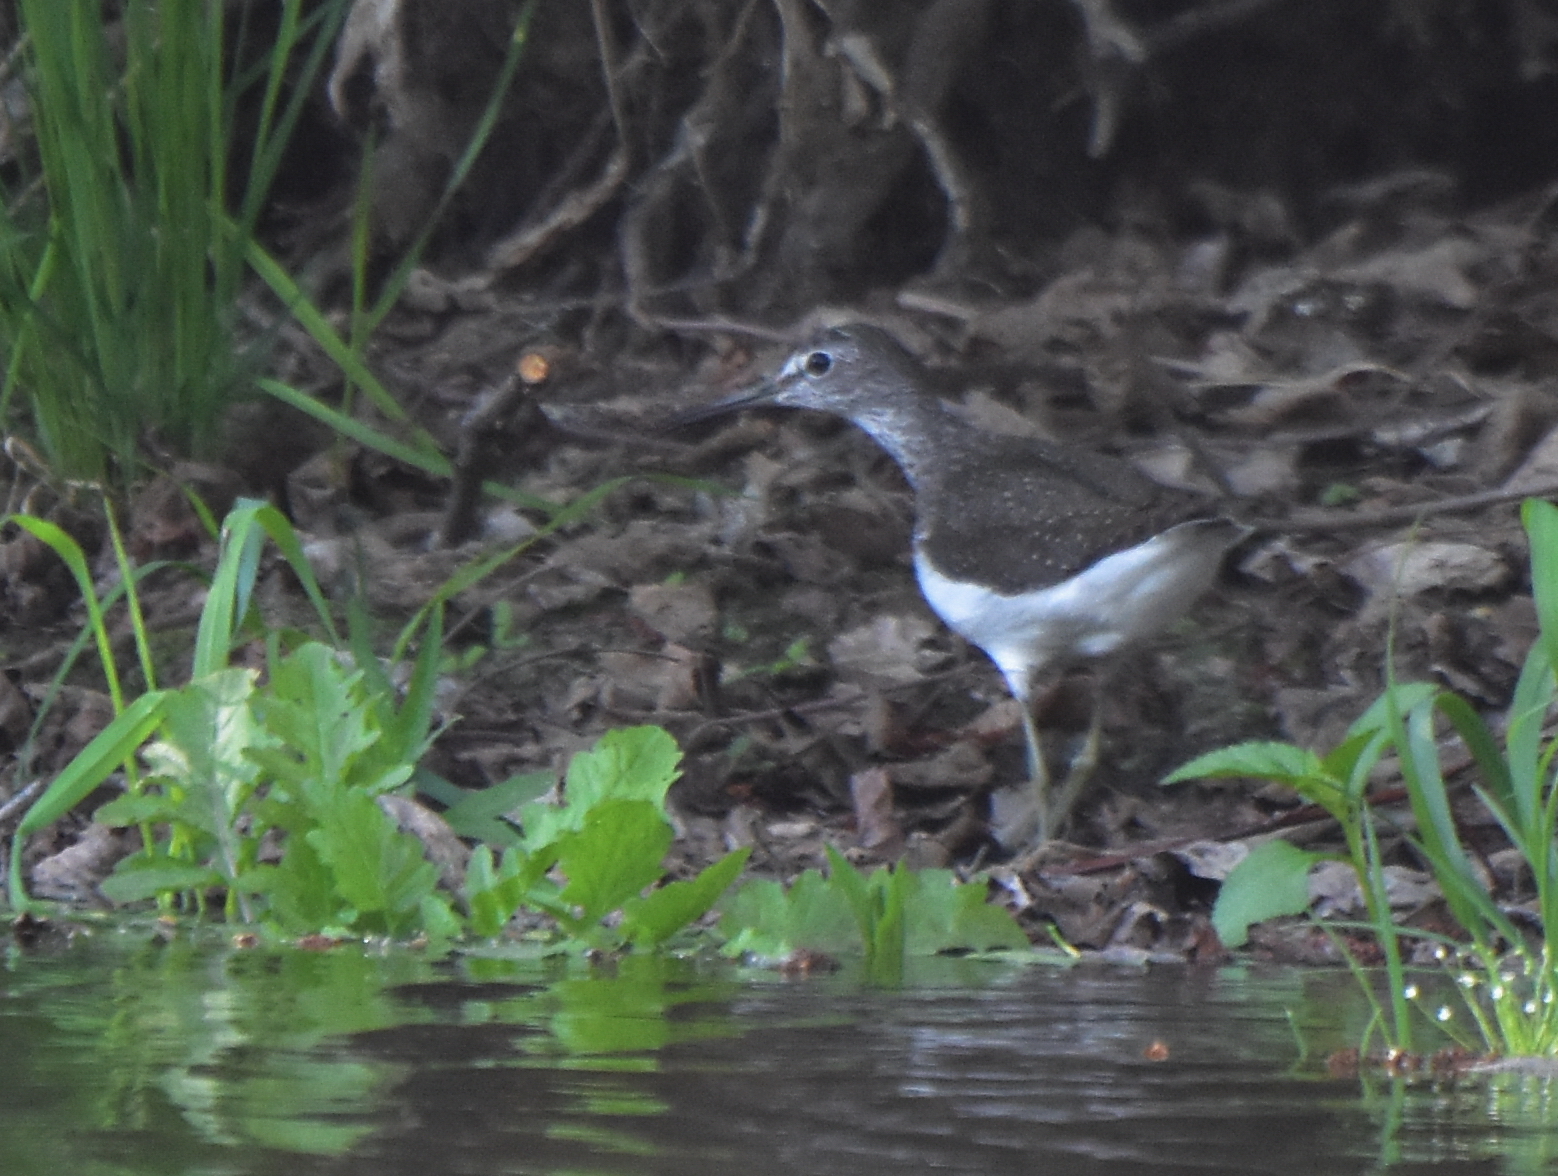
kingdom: Animalia
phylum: Chordata
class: Aves
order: Charadriiformes
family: Scolopacidae
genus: Tringa
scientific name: Tringa ochropus
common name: Green sandpiper
